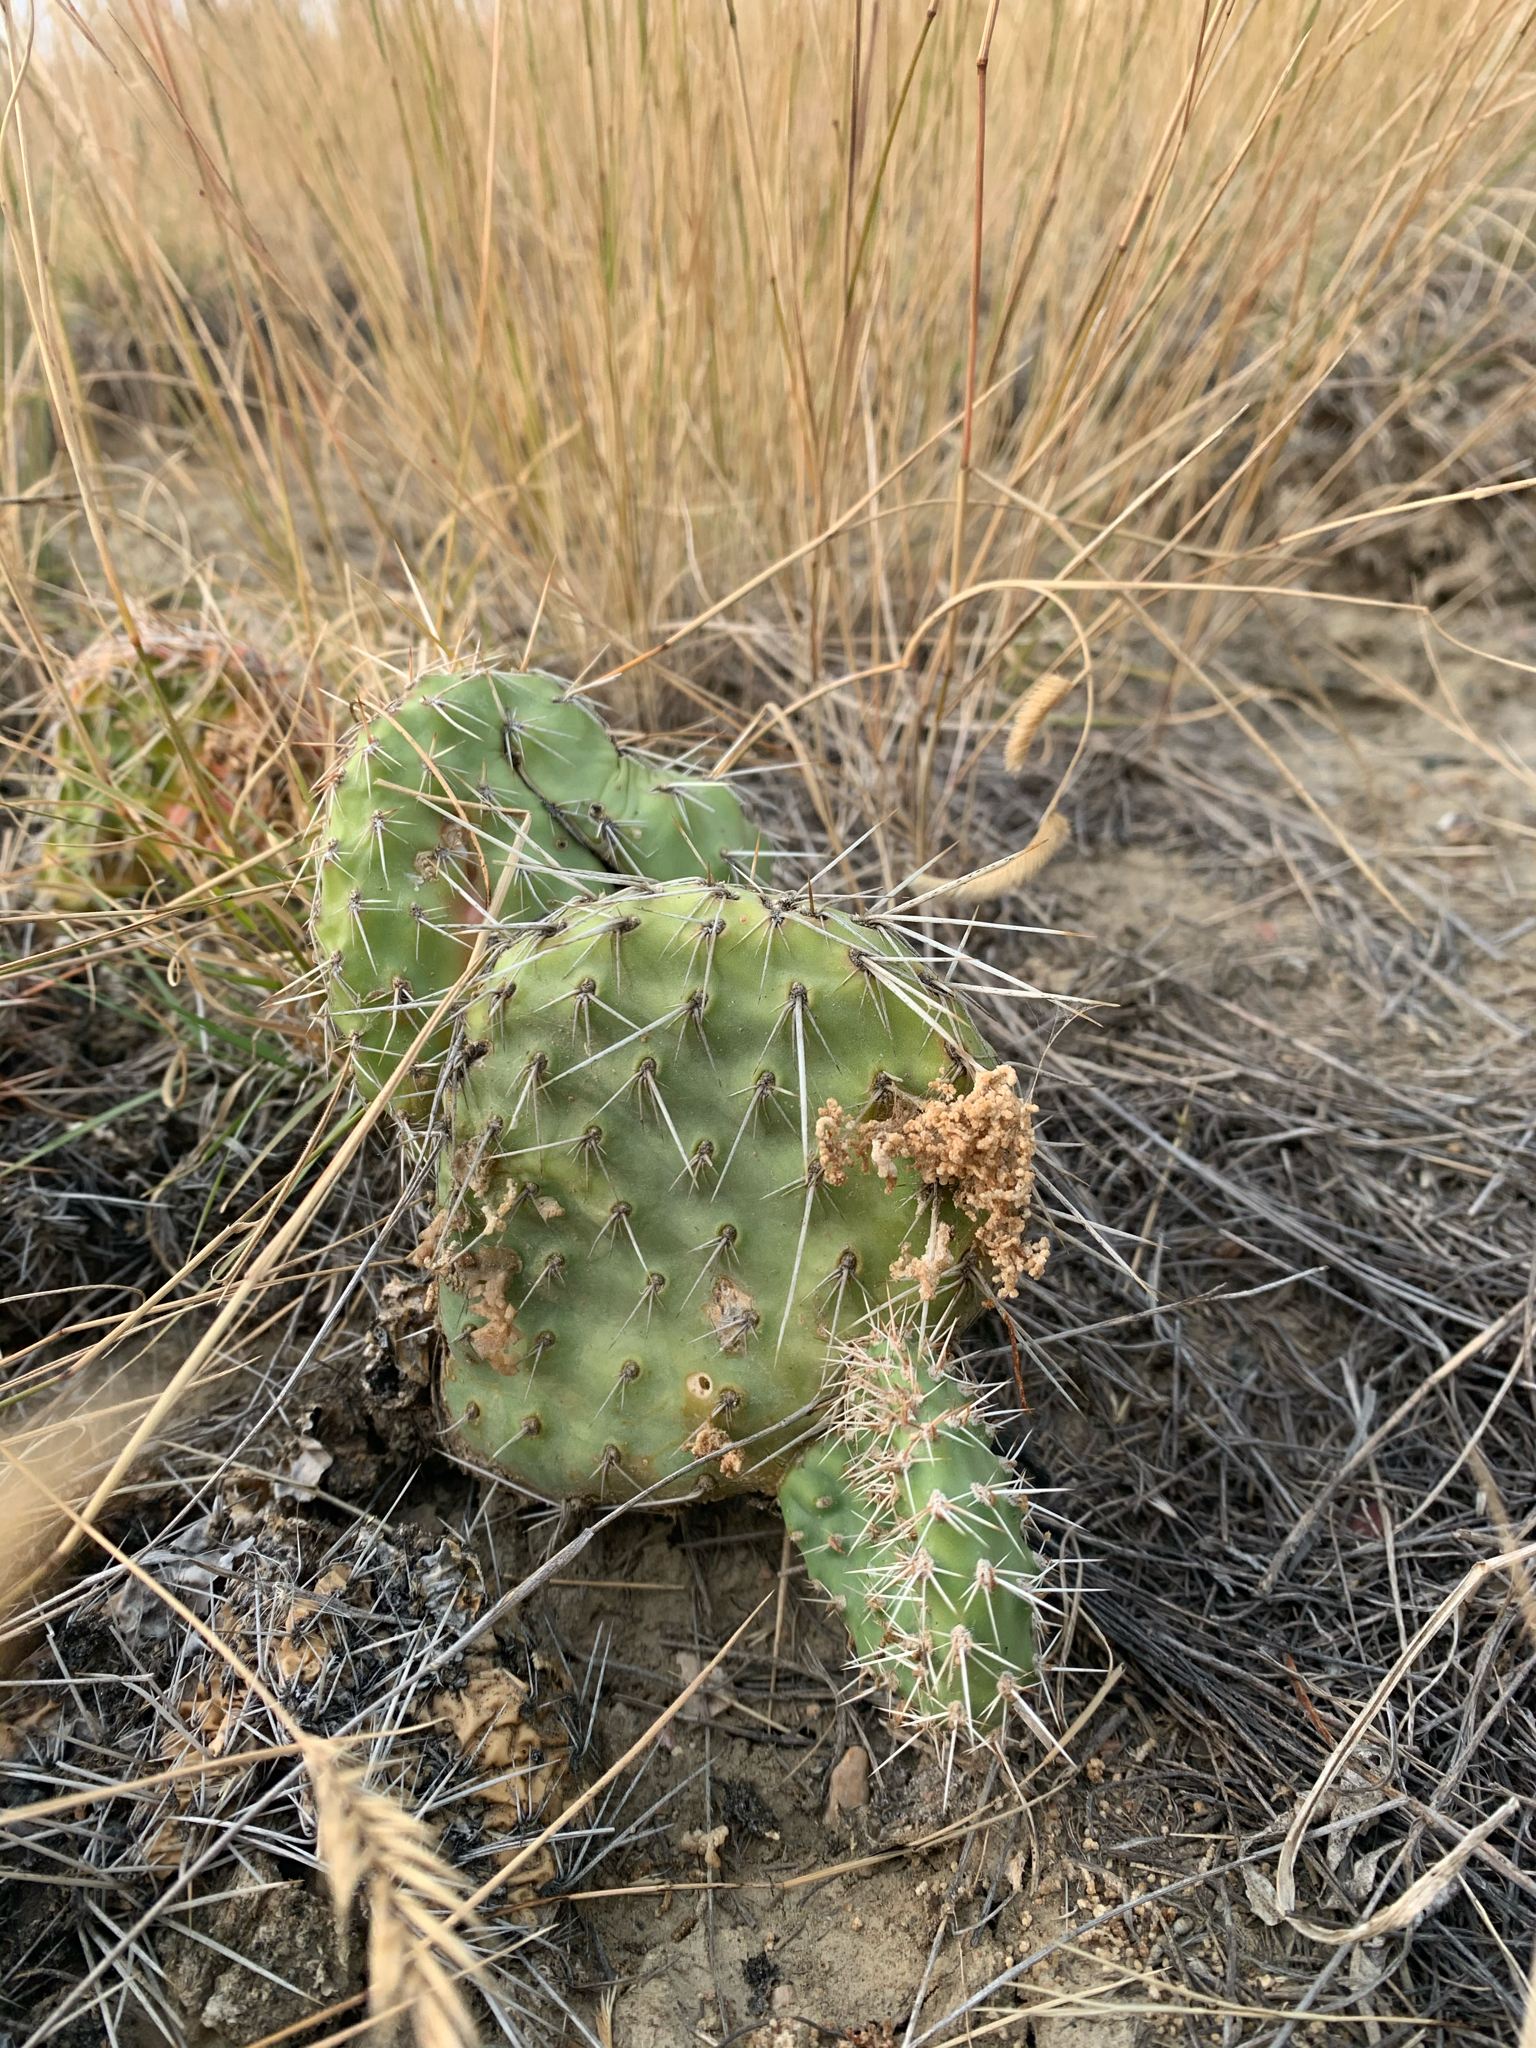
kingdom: Plantae
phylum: Tracheophyta
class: Magnoliopsida
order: Caryophyllales
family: Cactaceae
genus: Opuntia
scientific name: Opuntia polyacantha
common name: Plains prickly-pear
